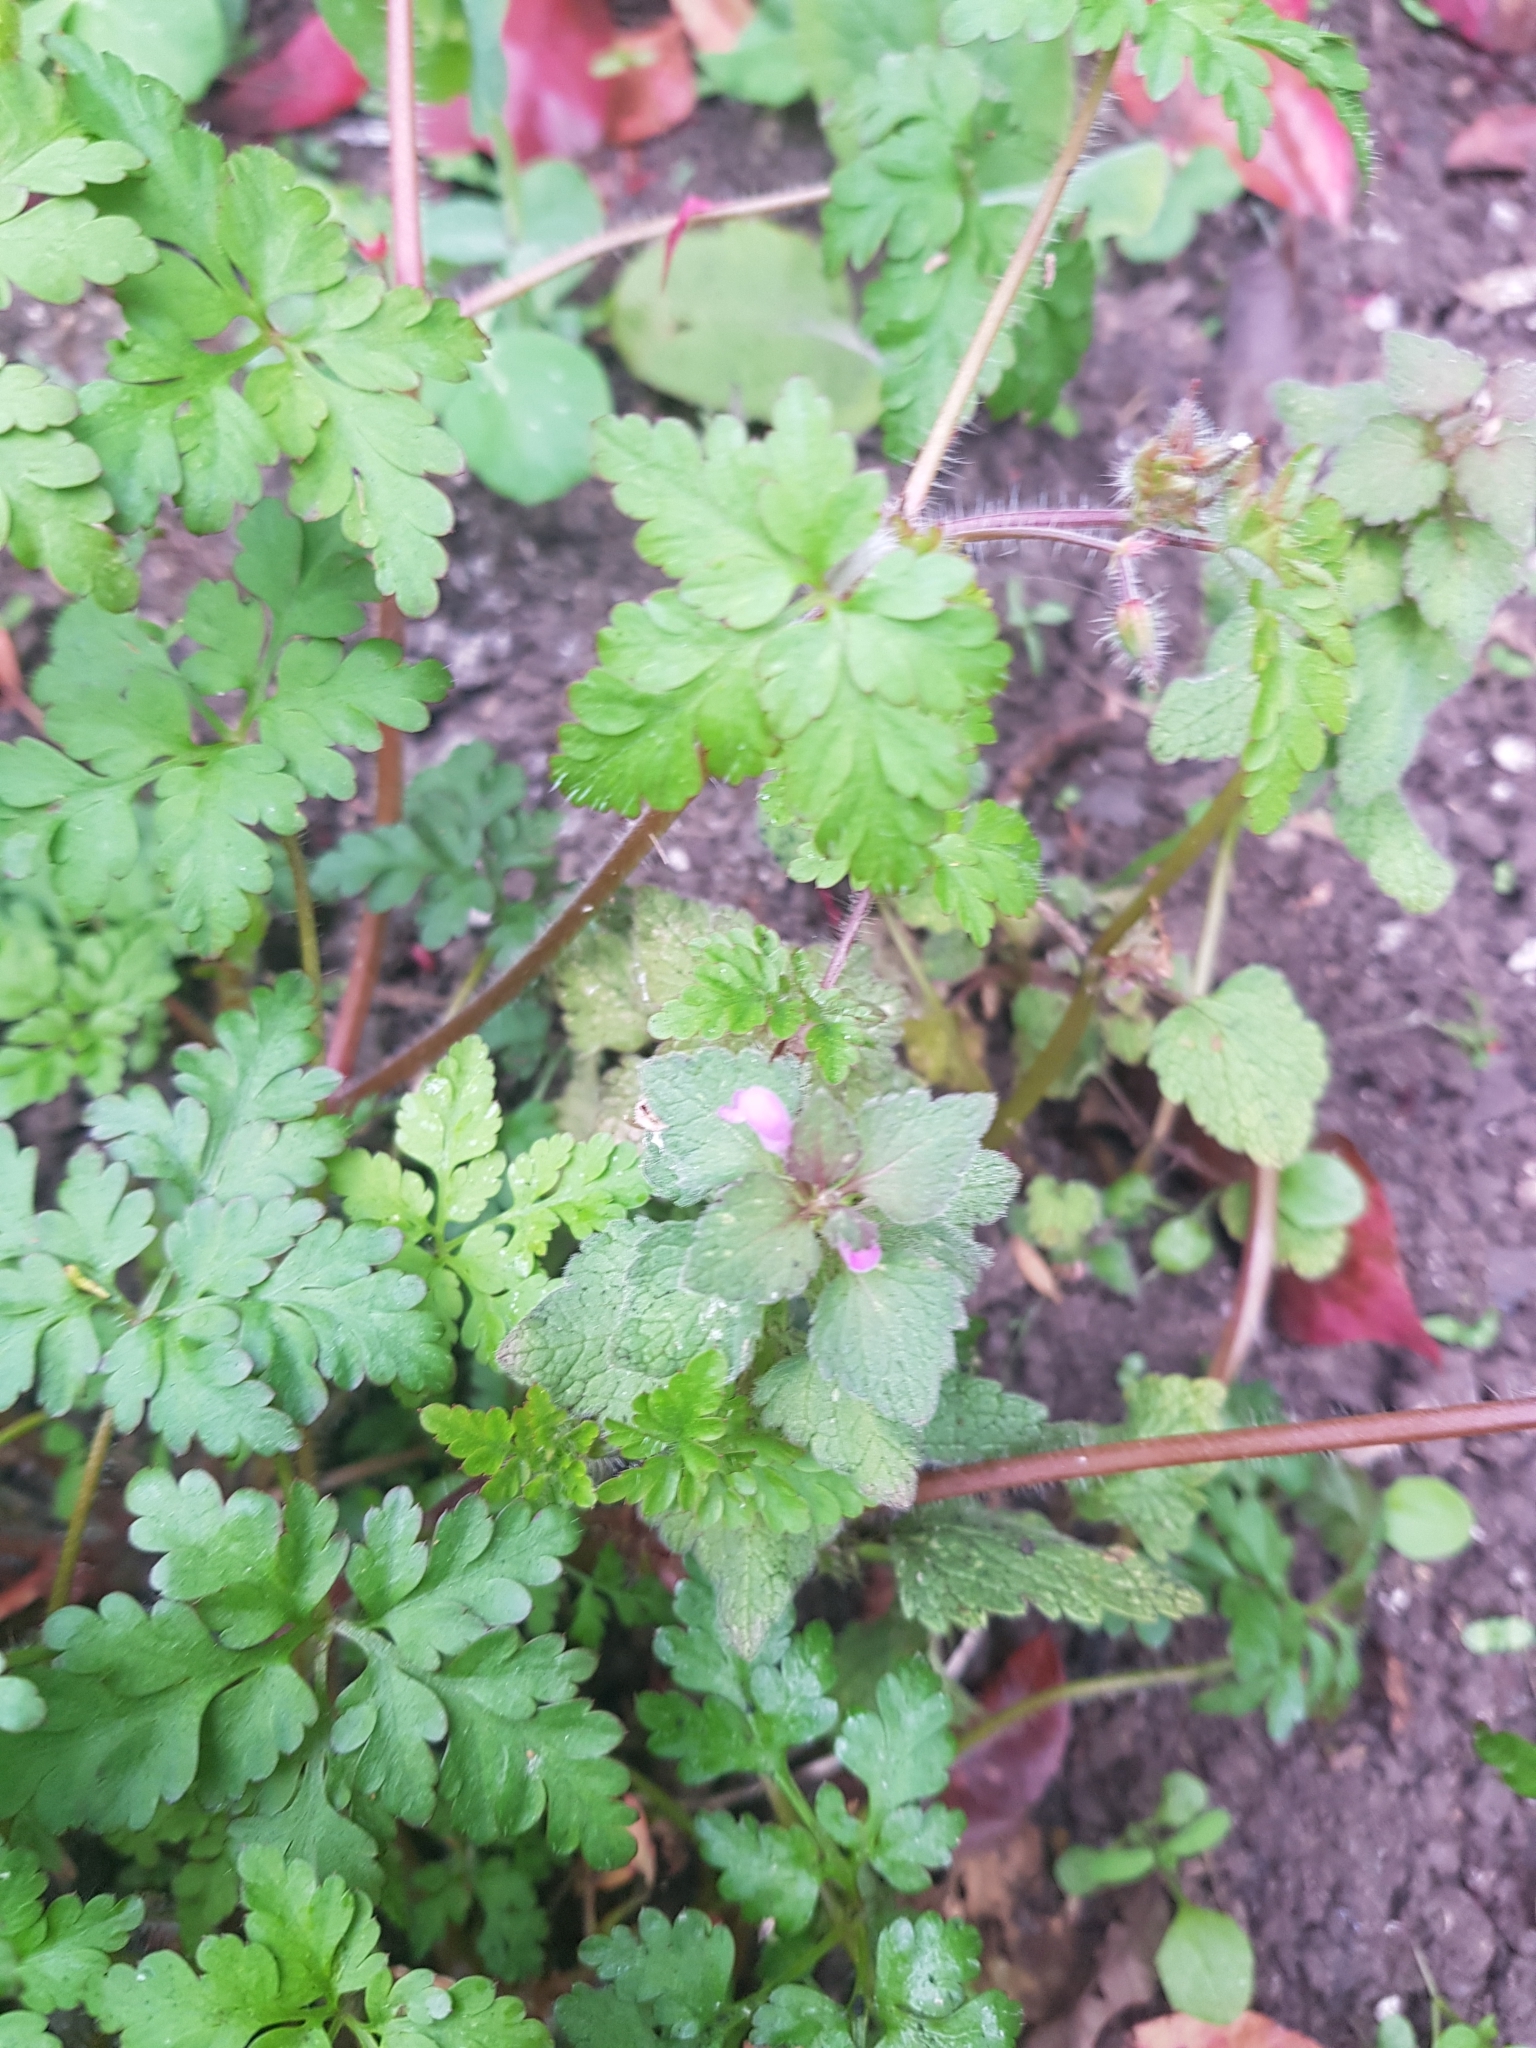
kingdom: Plantae
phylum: Tracheophyta
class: Magnoliopsida
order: Lamiales
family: Lamiaceae
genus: Lamium
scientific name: Lamium purpureum
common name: Red dead-nettle
